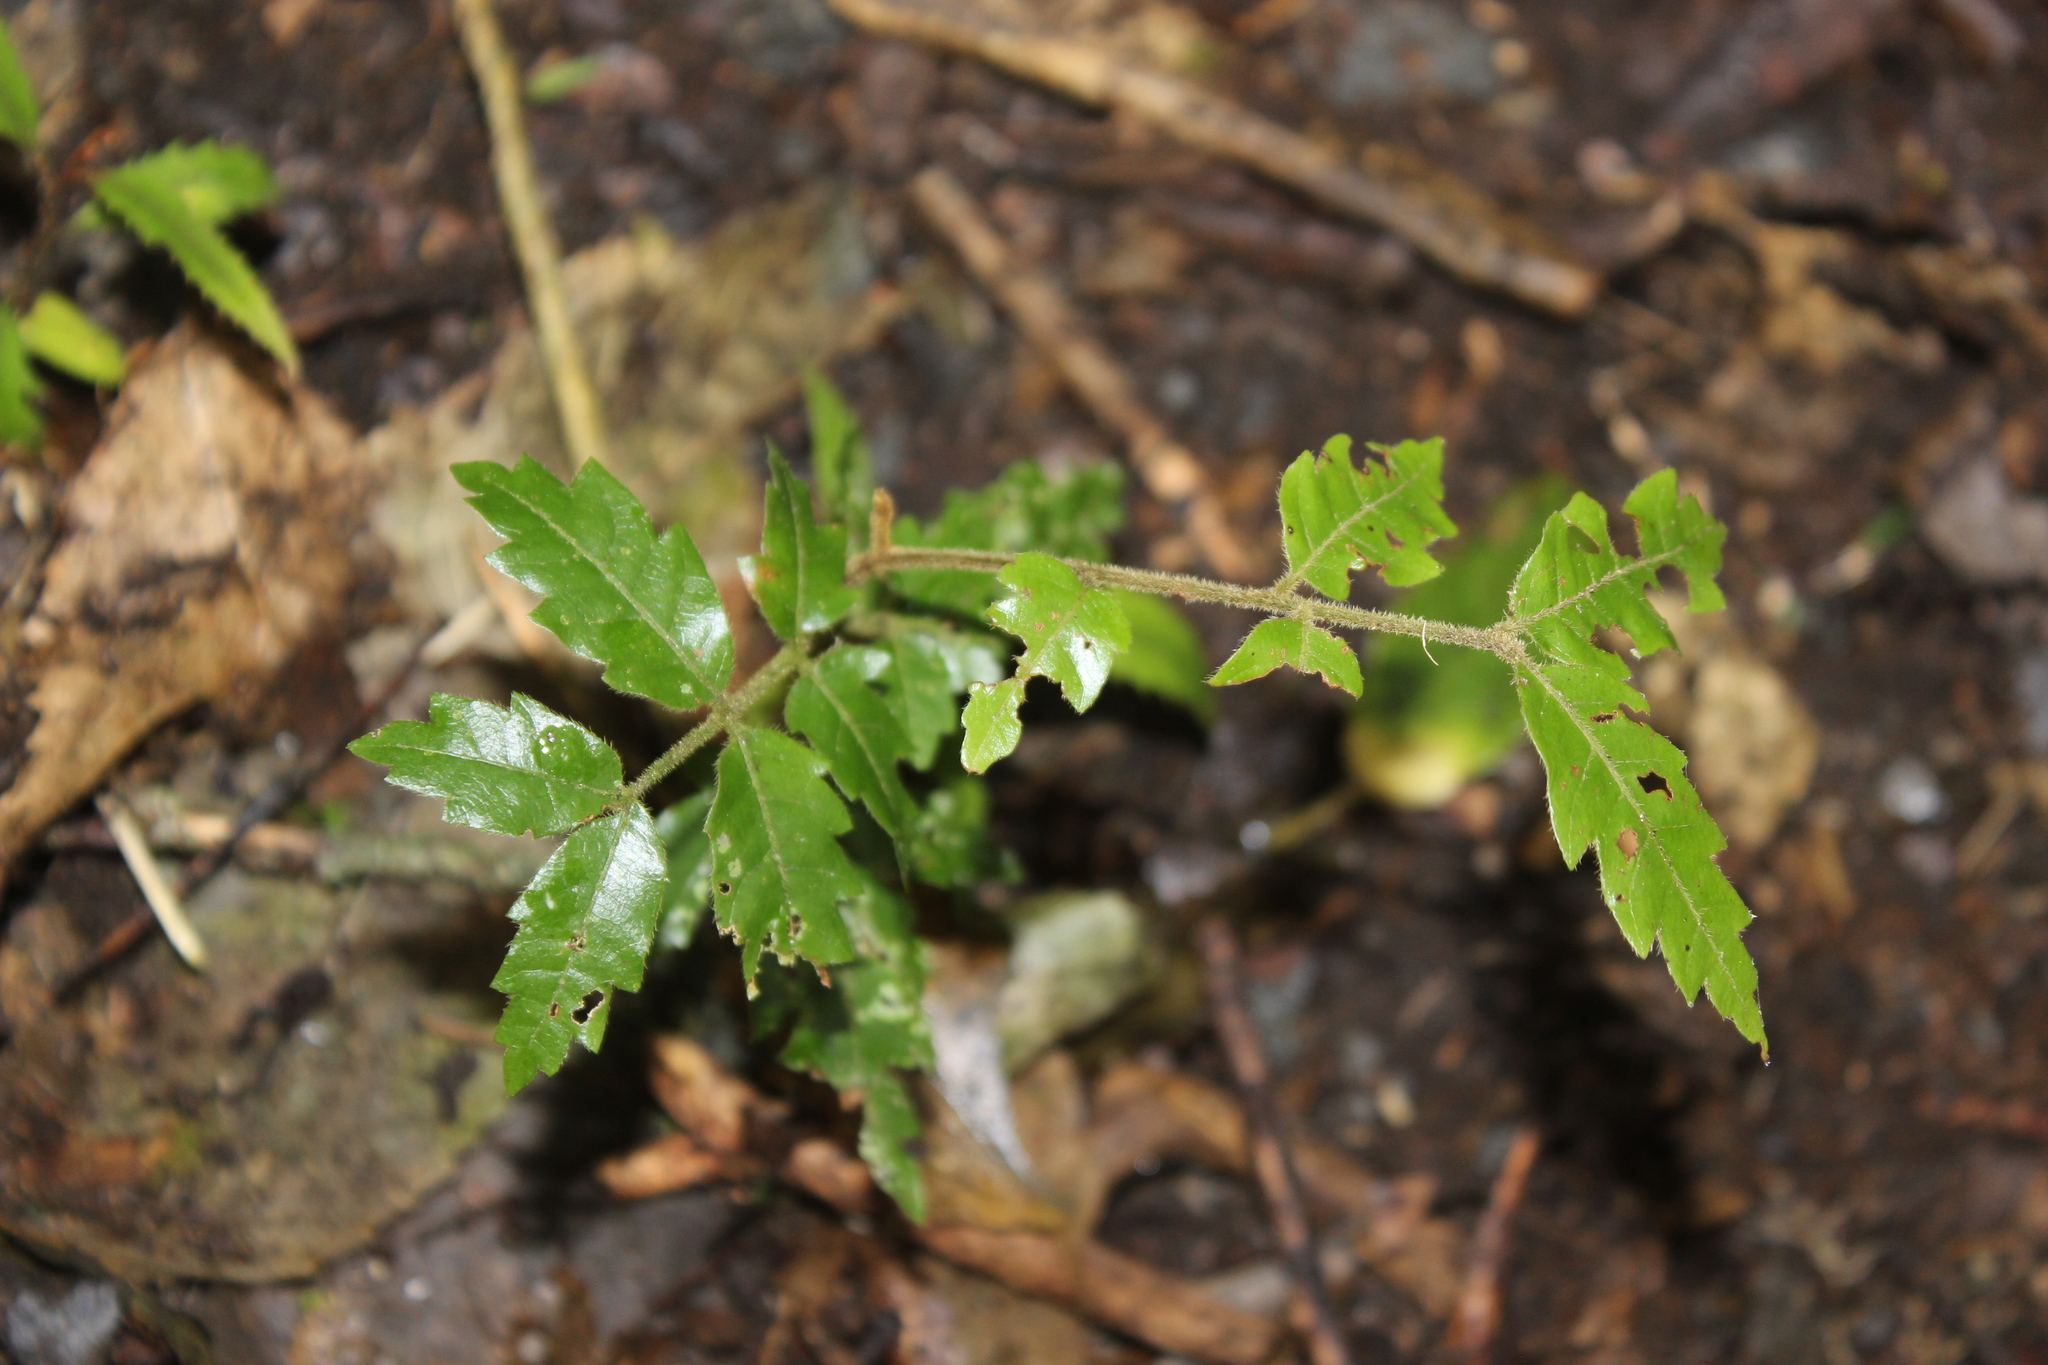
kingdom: Plantae
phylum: Tracheophyta
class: Magnoliopsida
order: Sapindales
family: Sapindaceae
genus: Alectryon
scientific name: Alectryon excelsus
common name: Three kings titoki
